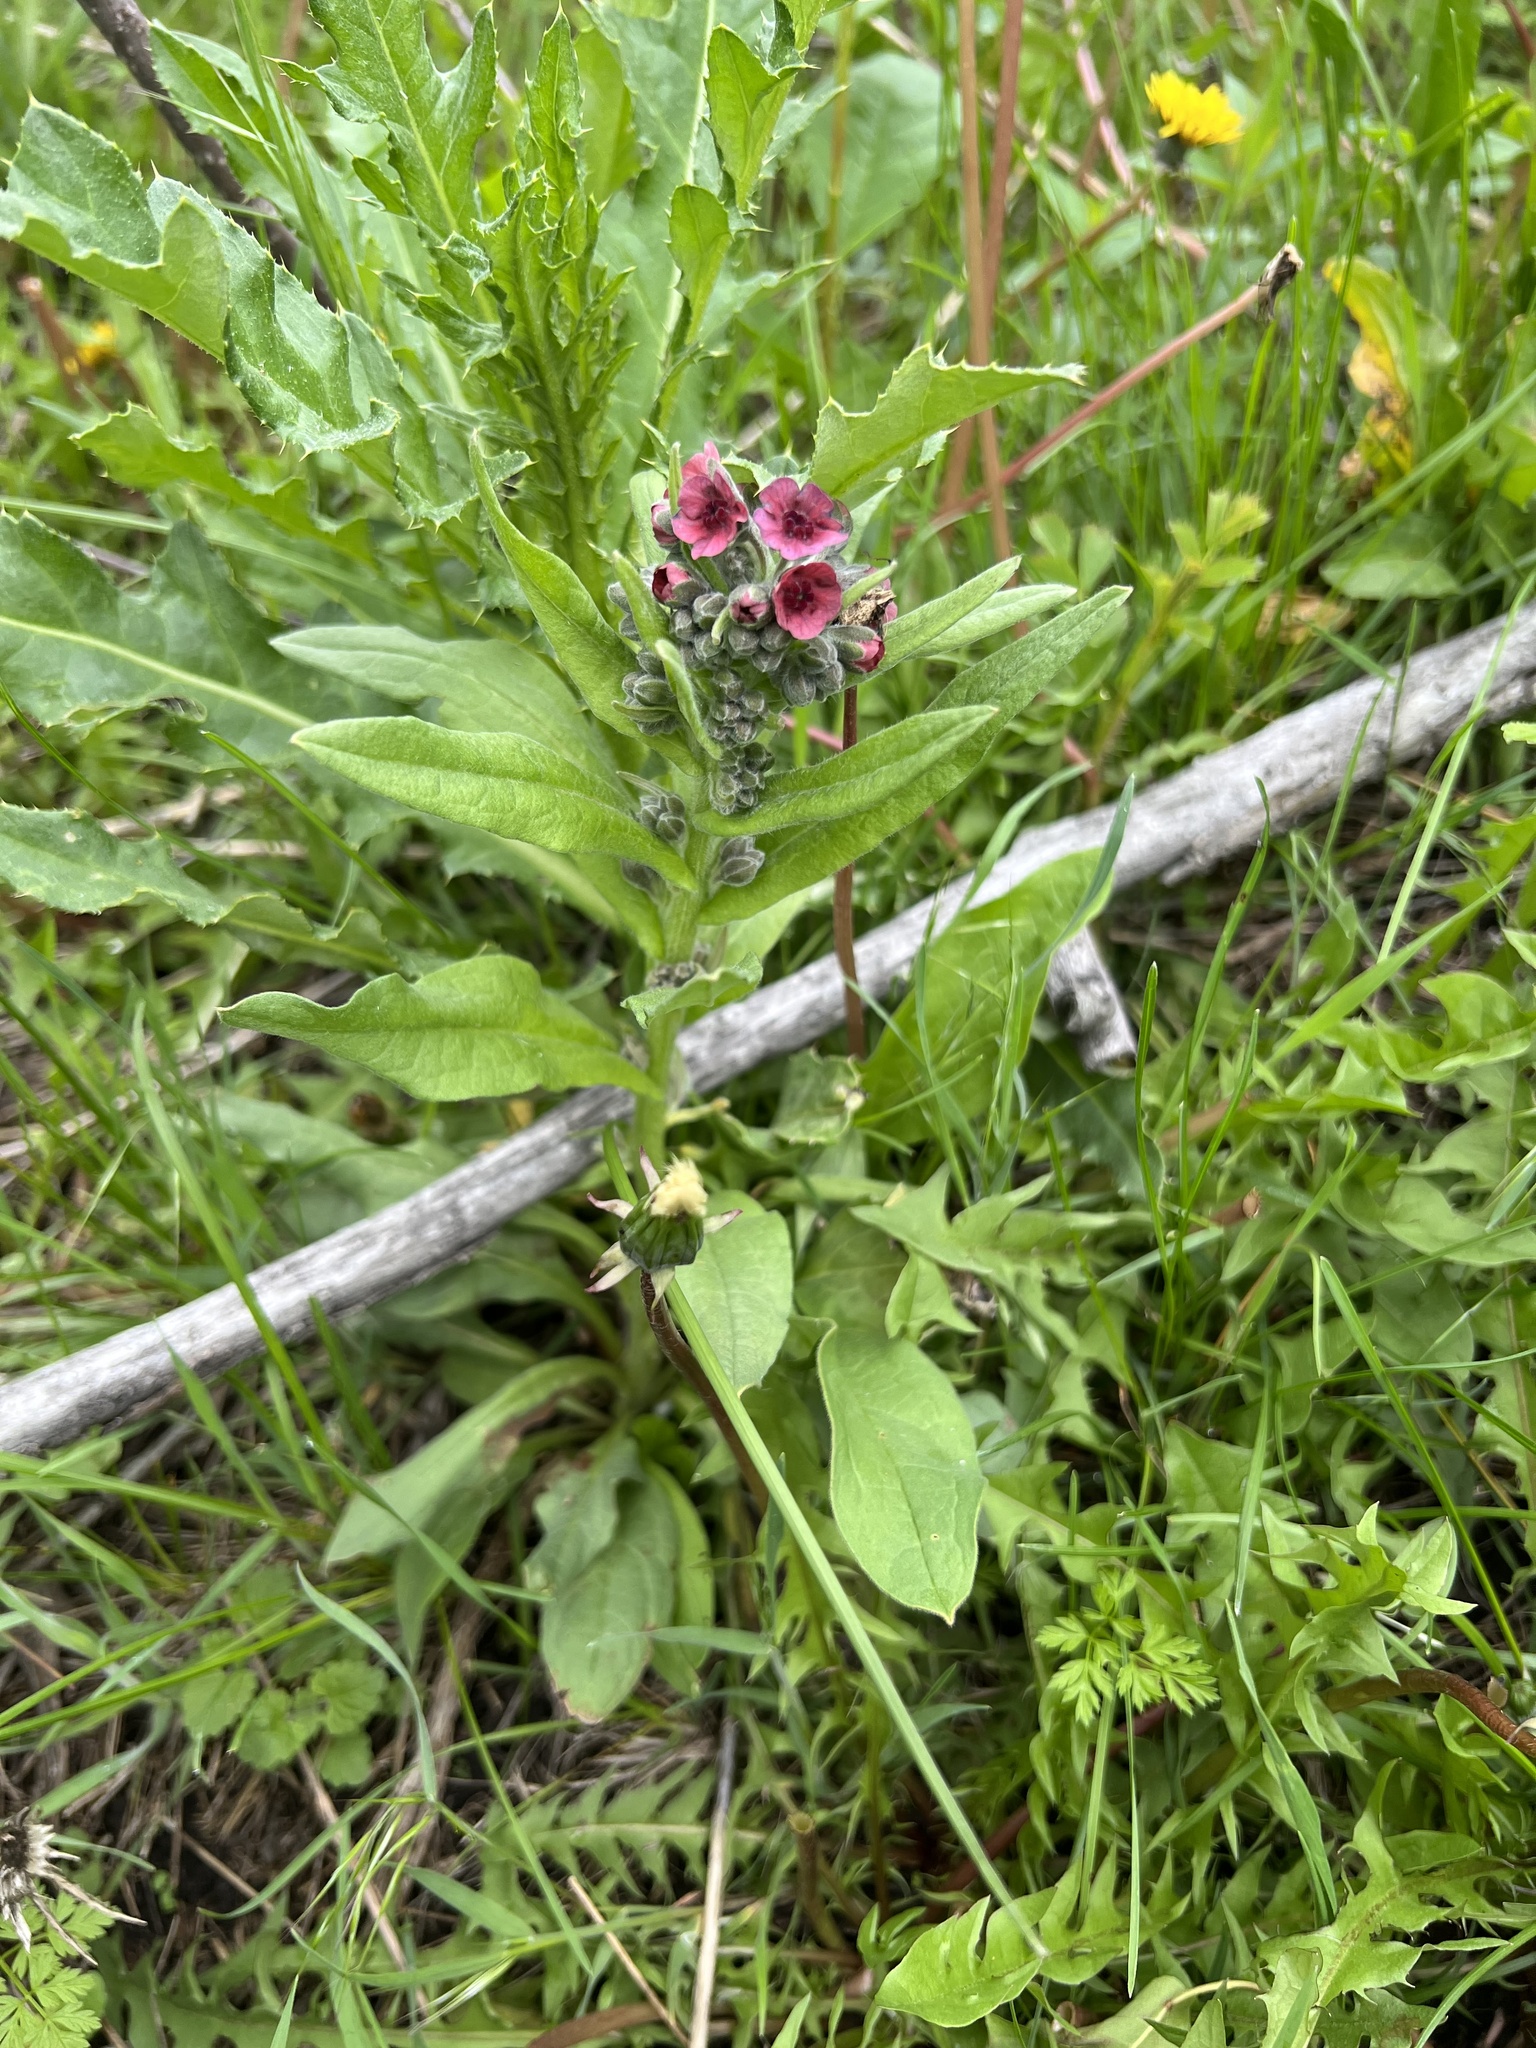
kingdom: Plantae
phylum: Tracheophyta
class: Magnoliopsida
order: Boraginales
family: Boraginaceae
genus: Cynoglossum
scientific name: Cynoglossum officinale
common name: Hound's-tongue
